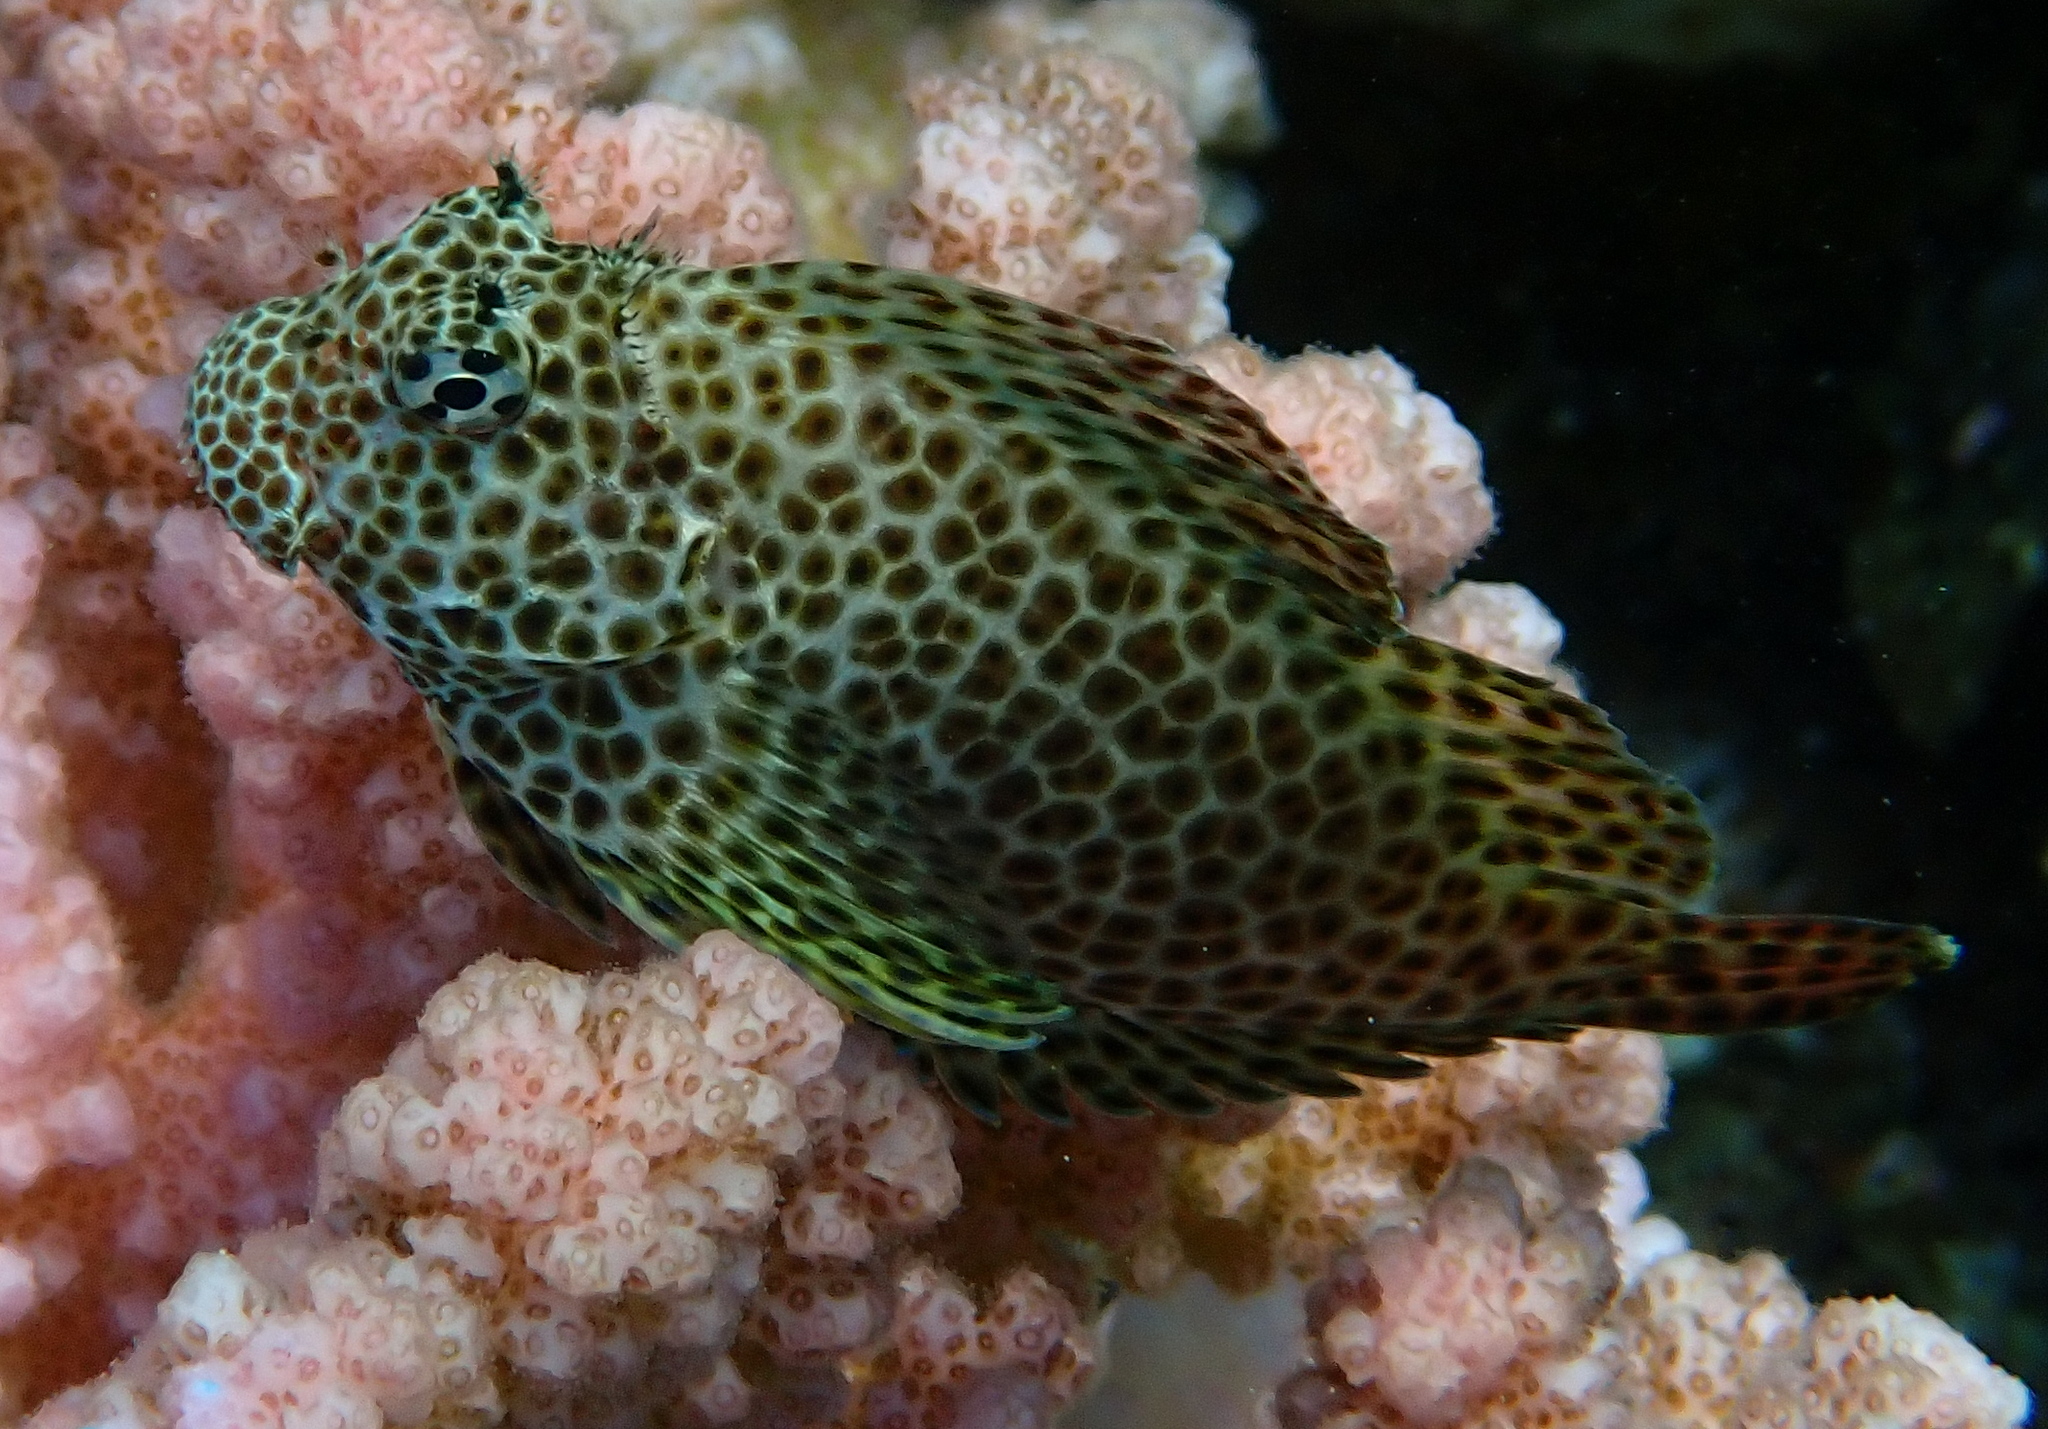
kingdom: Animalia
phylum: Chordata
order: Perciformes
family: Blenniidae
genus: Exallias
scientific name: Exallias brevis
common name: Leopard blenny
